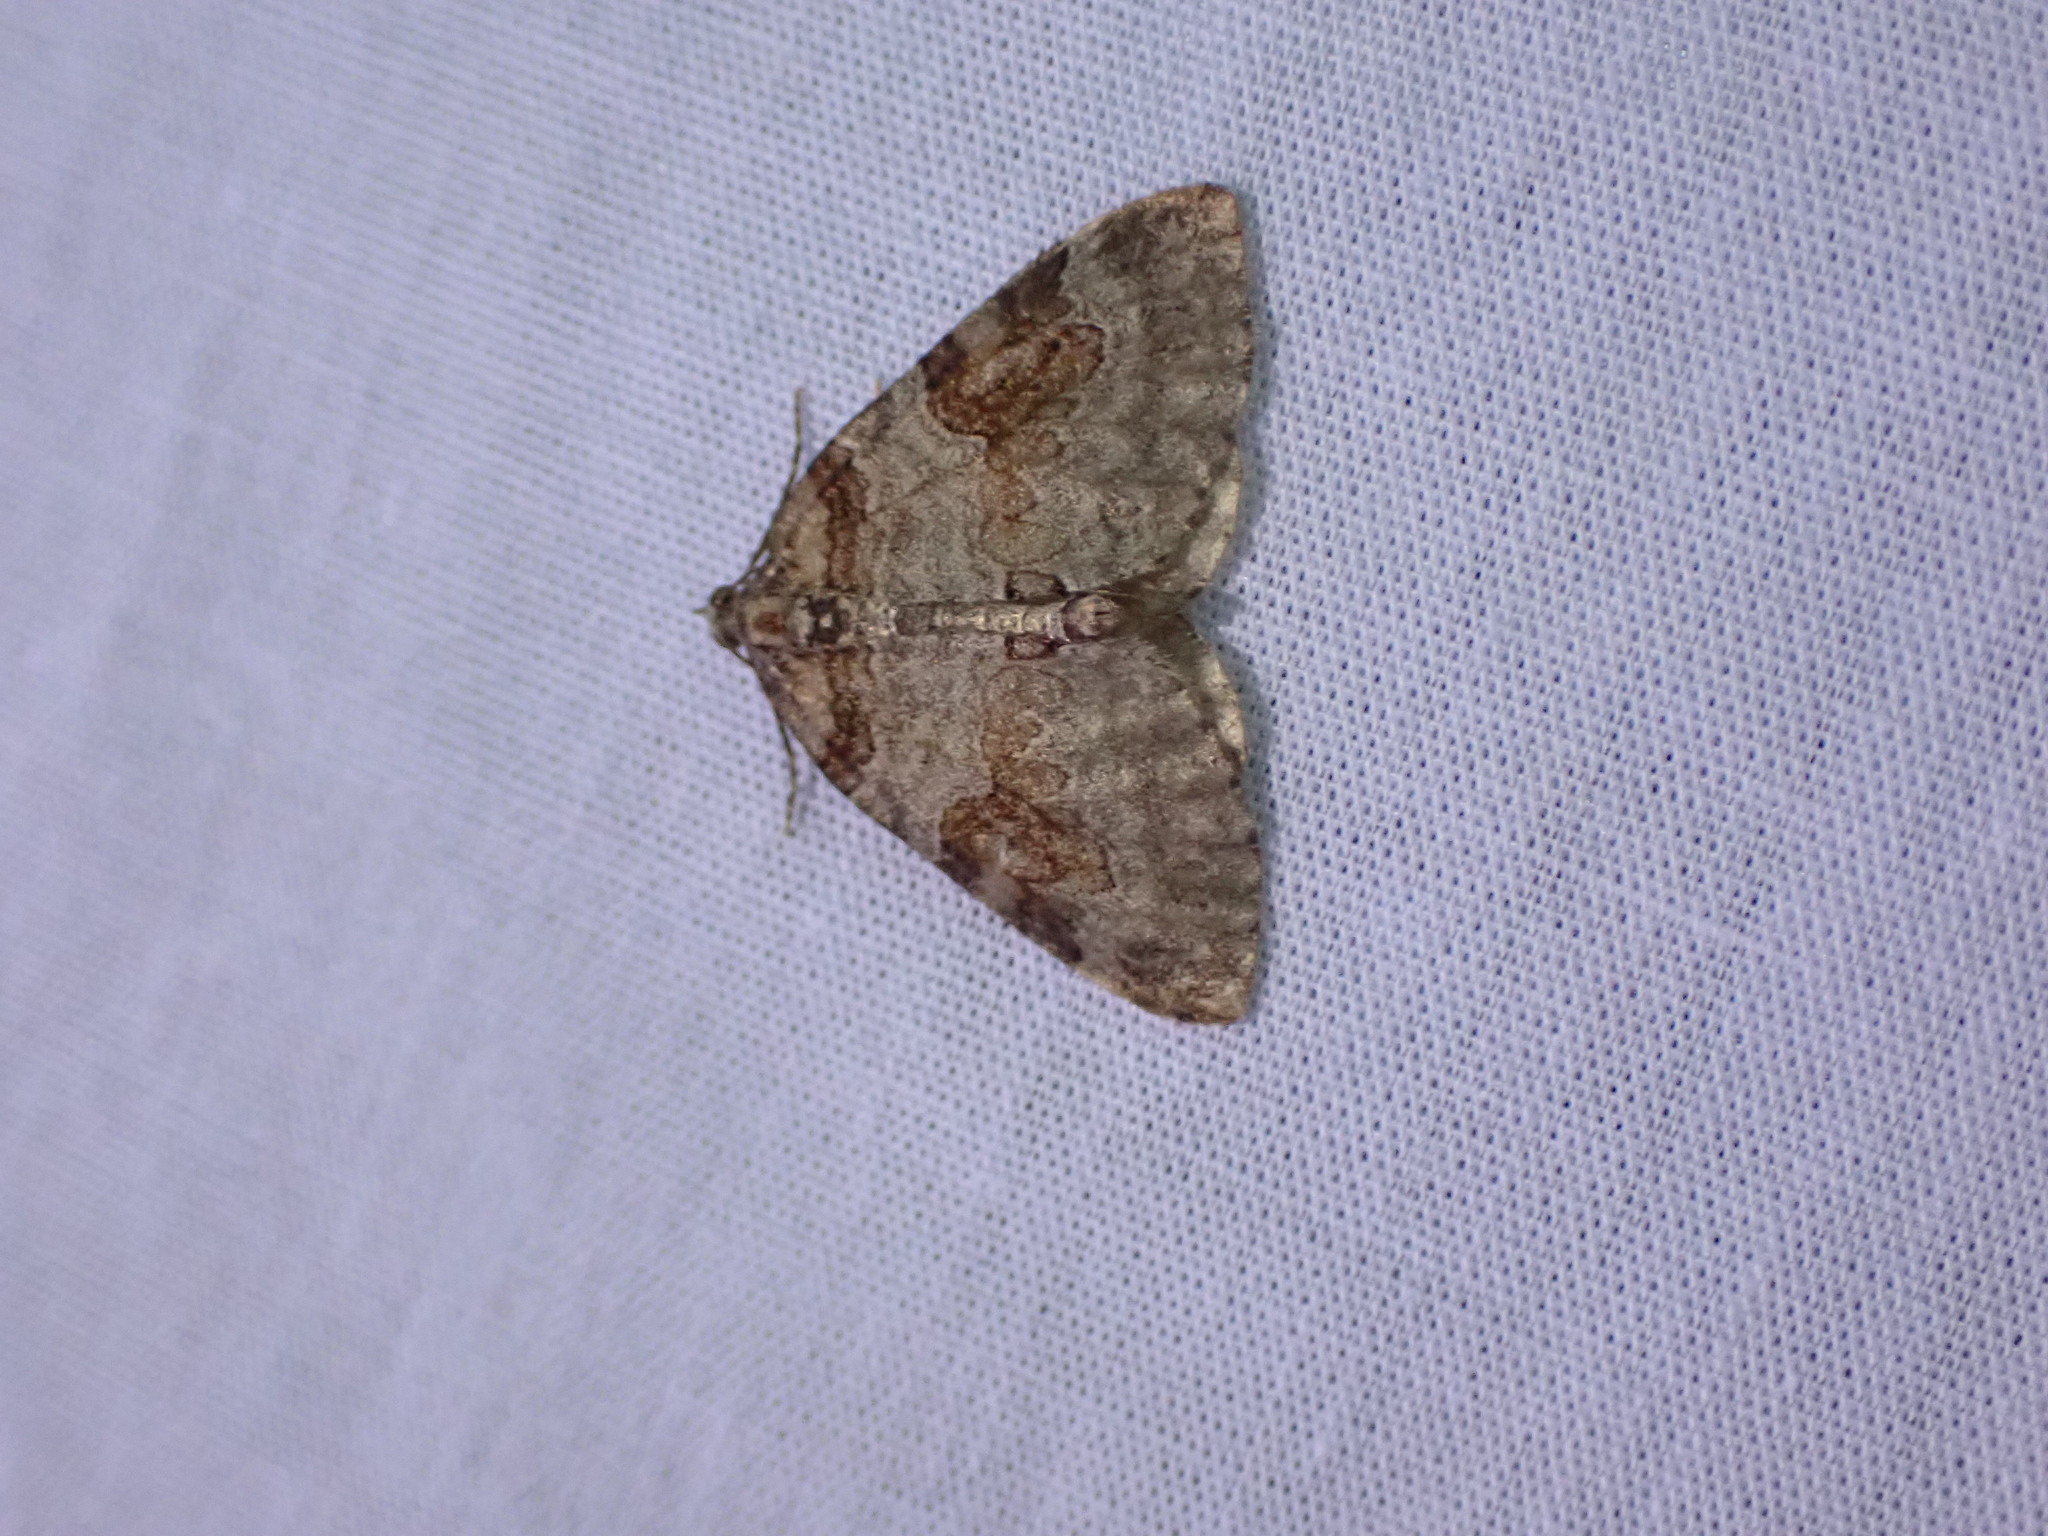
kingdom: Animalia
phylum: Arthropoda
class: Insecta
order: Lepidoptera
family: Geometridae
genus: Plemyria
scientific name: Plemyria georgii
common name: George's carpet moth
